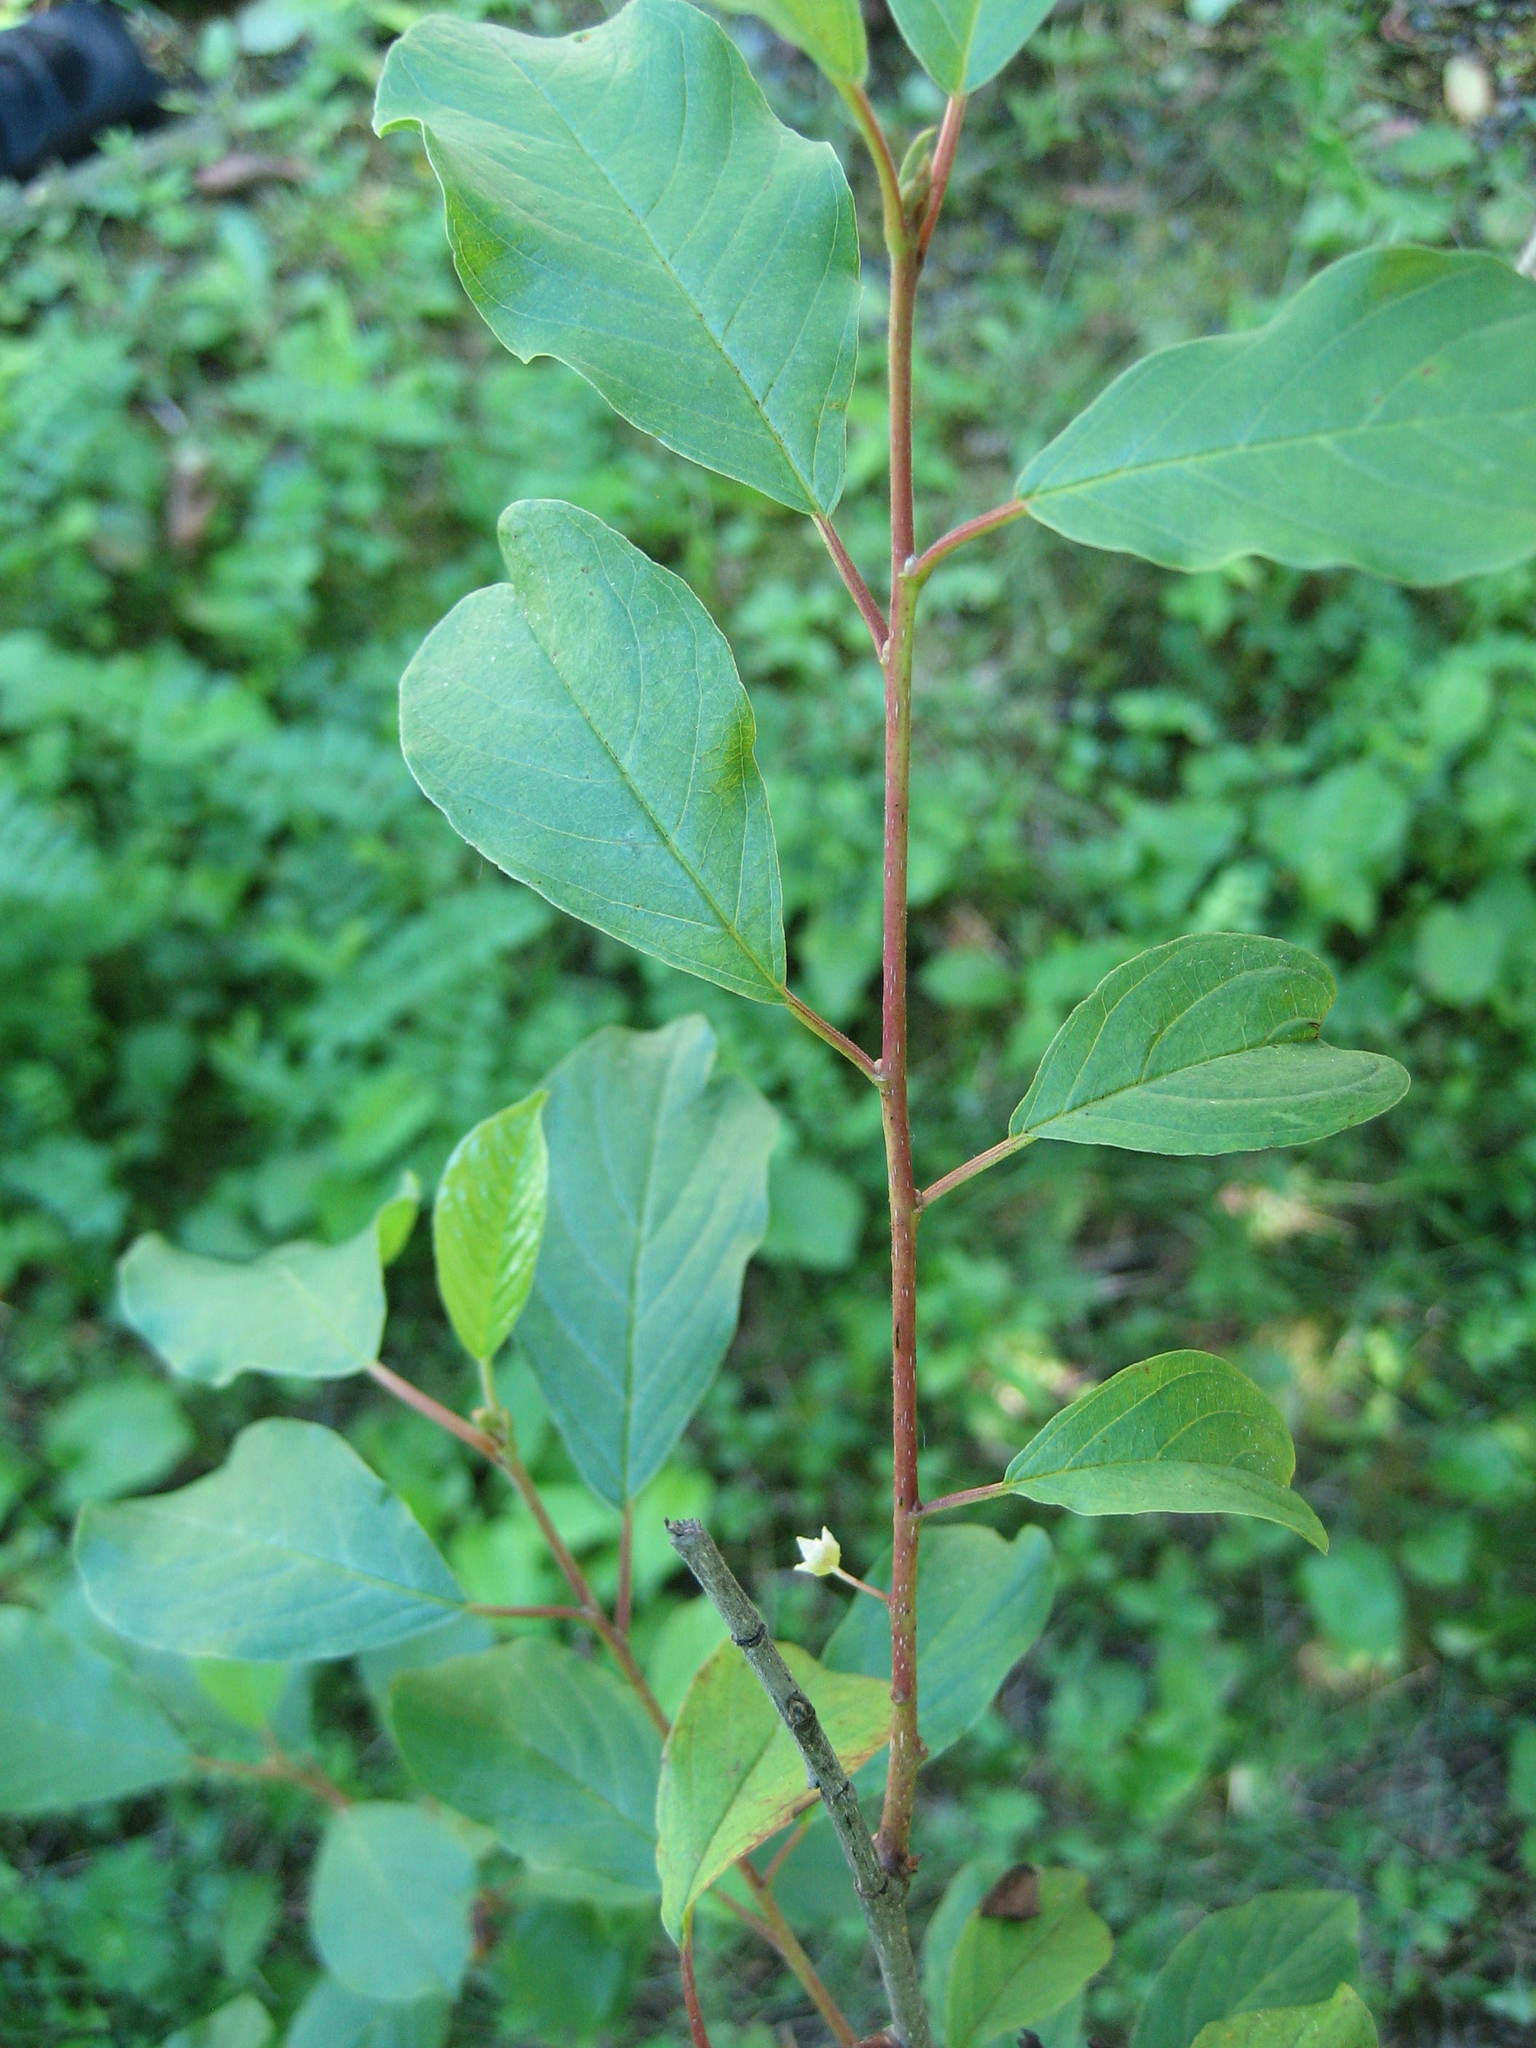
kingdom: Plantae
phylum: Tracheophyta
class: Magnoliopsida
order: Rosales
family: Rhamnaceae
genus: Frangula
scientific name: Frangula alnus
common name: Alder buckthorn
